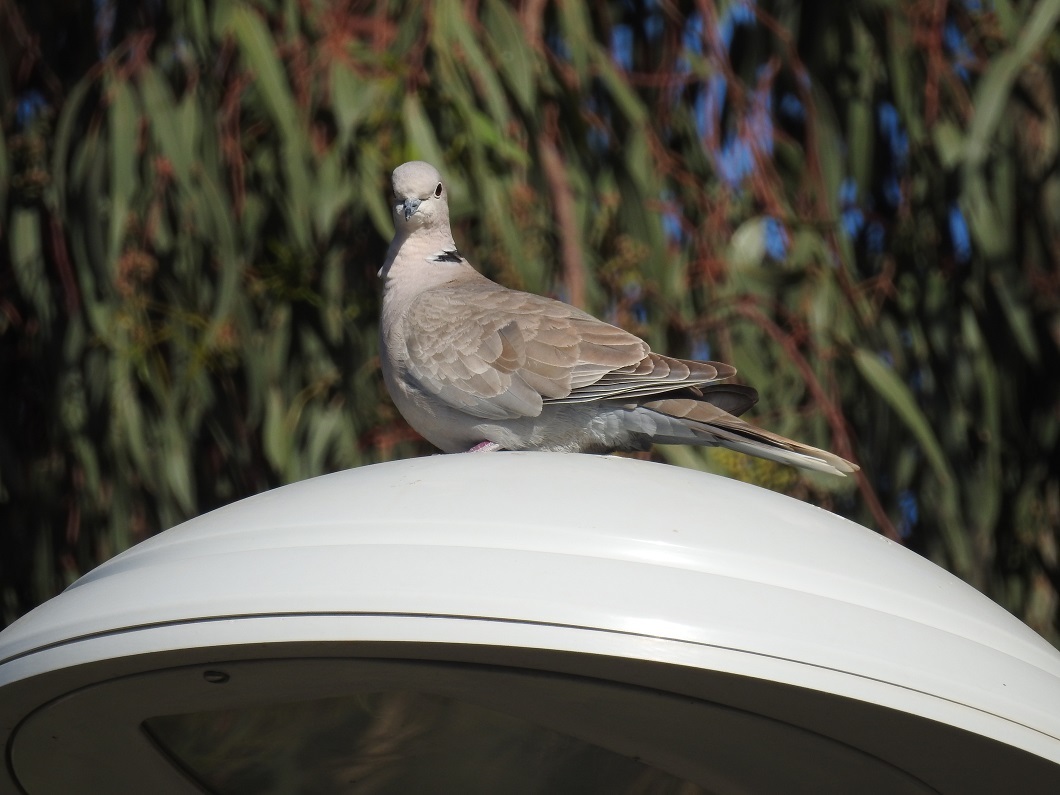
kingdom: Animalia
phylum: Chordata
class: Aves
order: Columbiformes
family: Columbidae
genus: Streptopelia
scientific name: Streptopelia decaocto
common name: Eurasian collared dove
